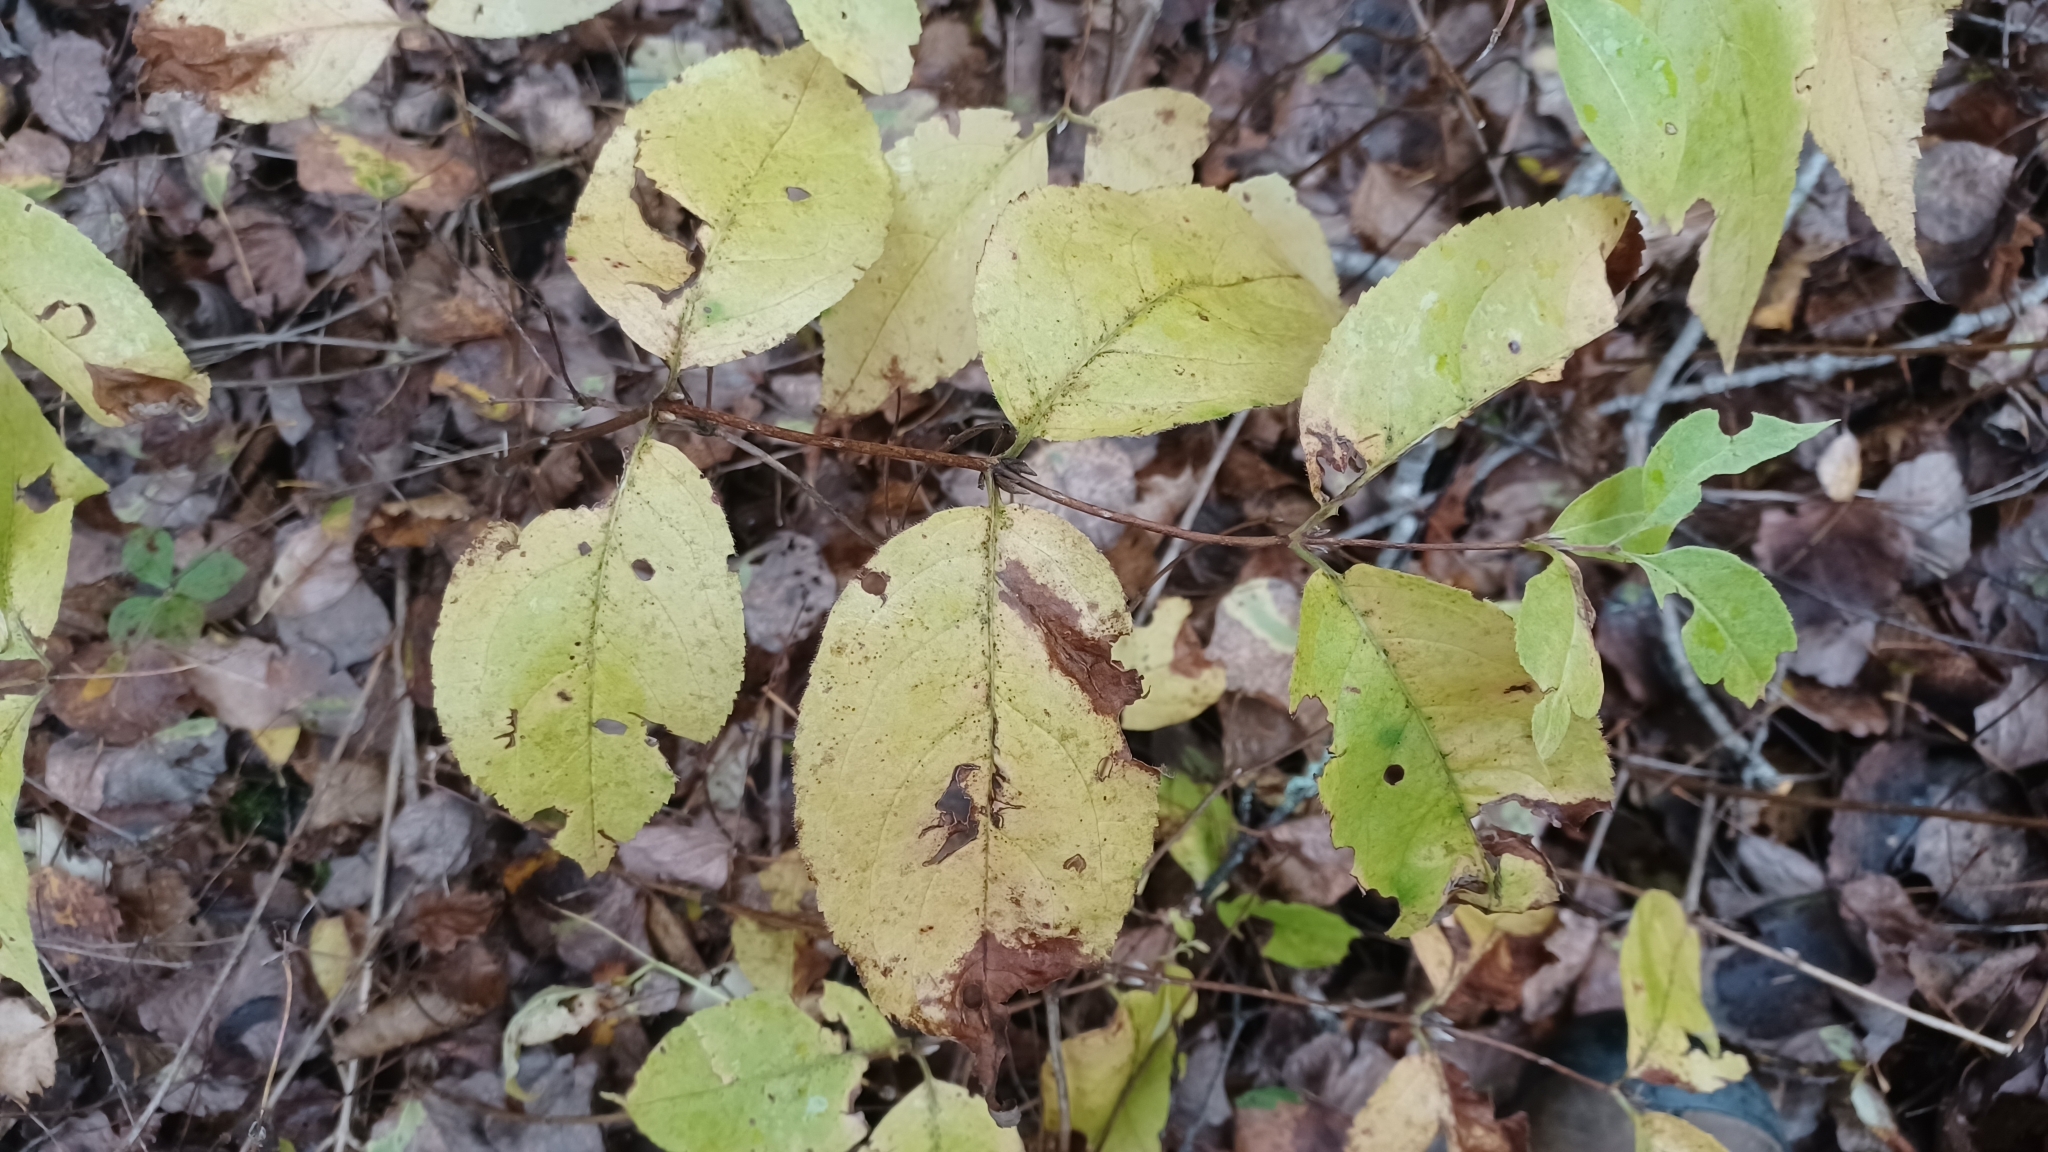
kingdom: Plantae
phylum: Tracheophyta
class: Magnoliopsida
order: Dipsacales
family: Caprifoliaceae
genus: Diervilla
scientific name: Diervilla lonicera
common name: Bush-honeysuckle
